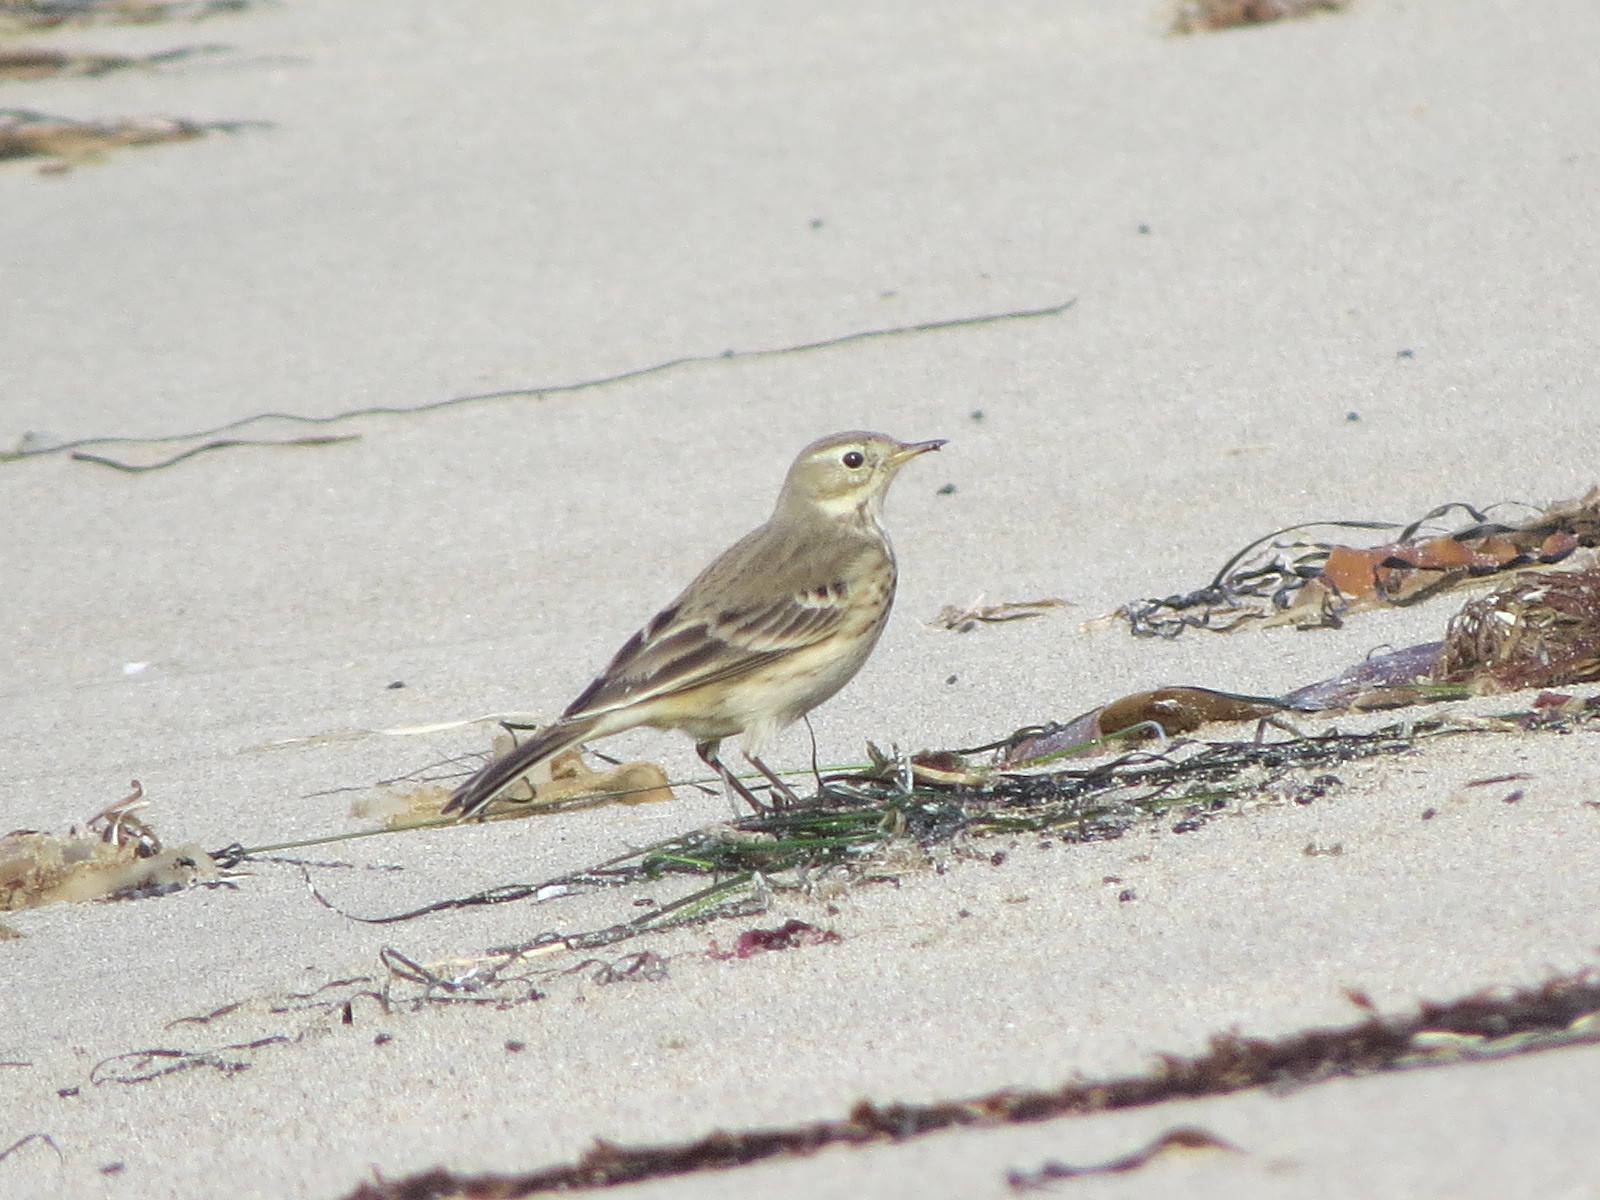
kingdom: Animalia
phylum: Chordata
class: Aves
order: Passeriformes
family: Motacillidae
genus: Anthus
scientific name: Anthus rubescens
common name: Buff-bellied pipit
